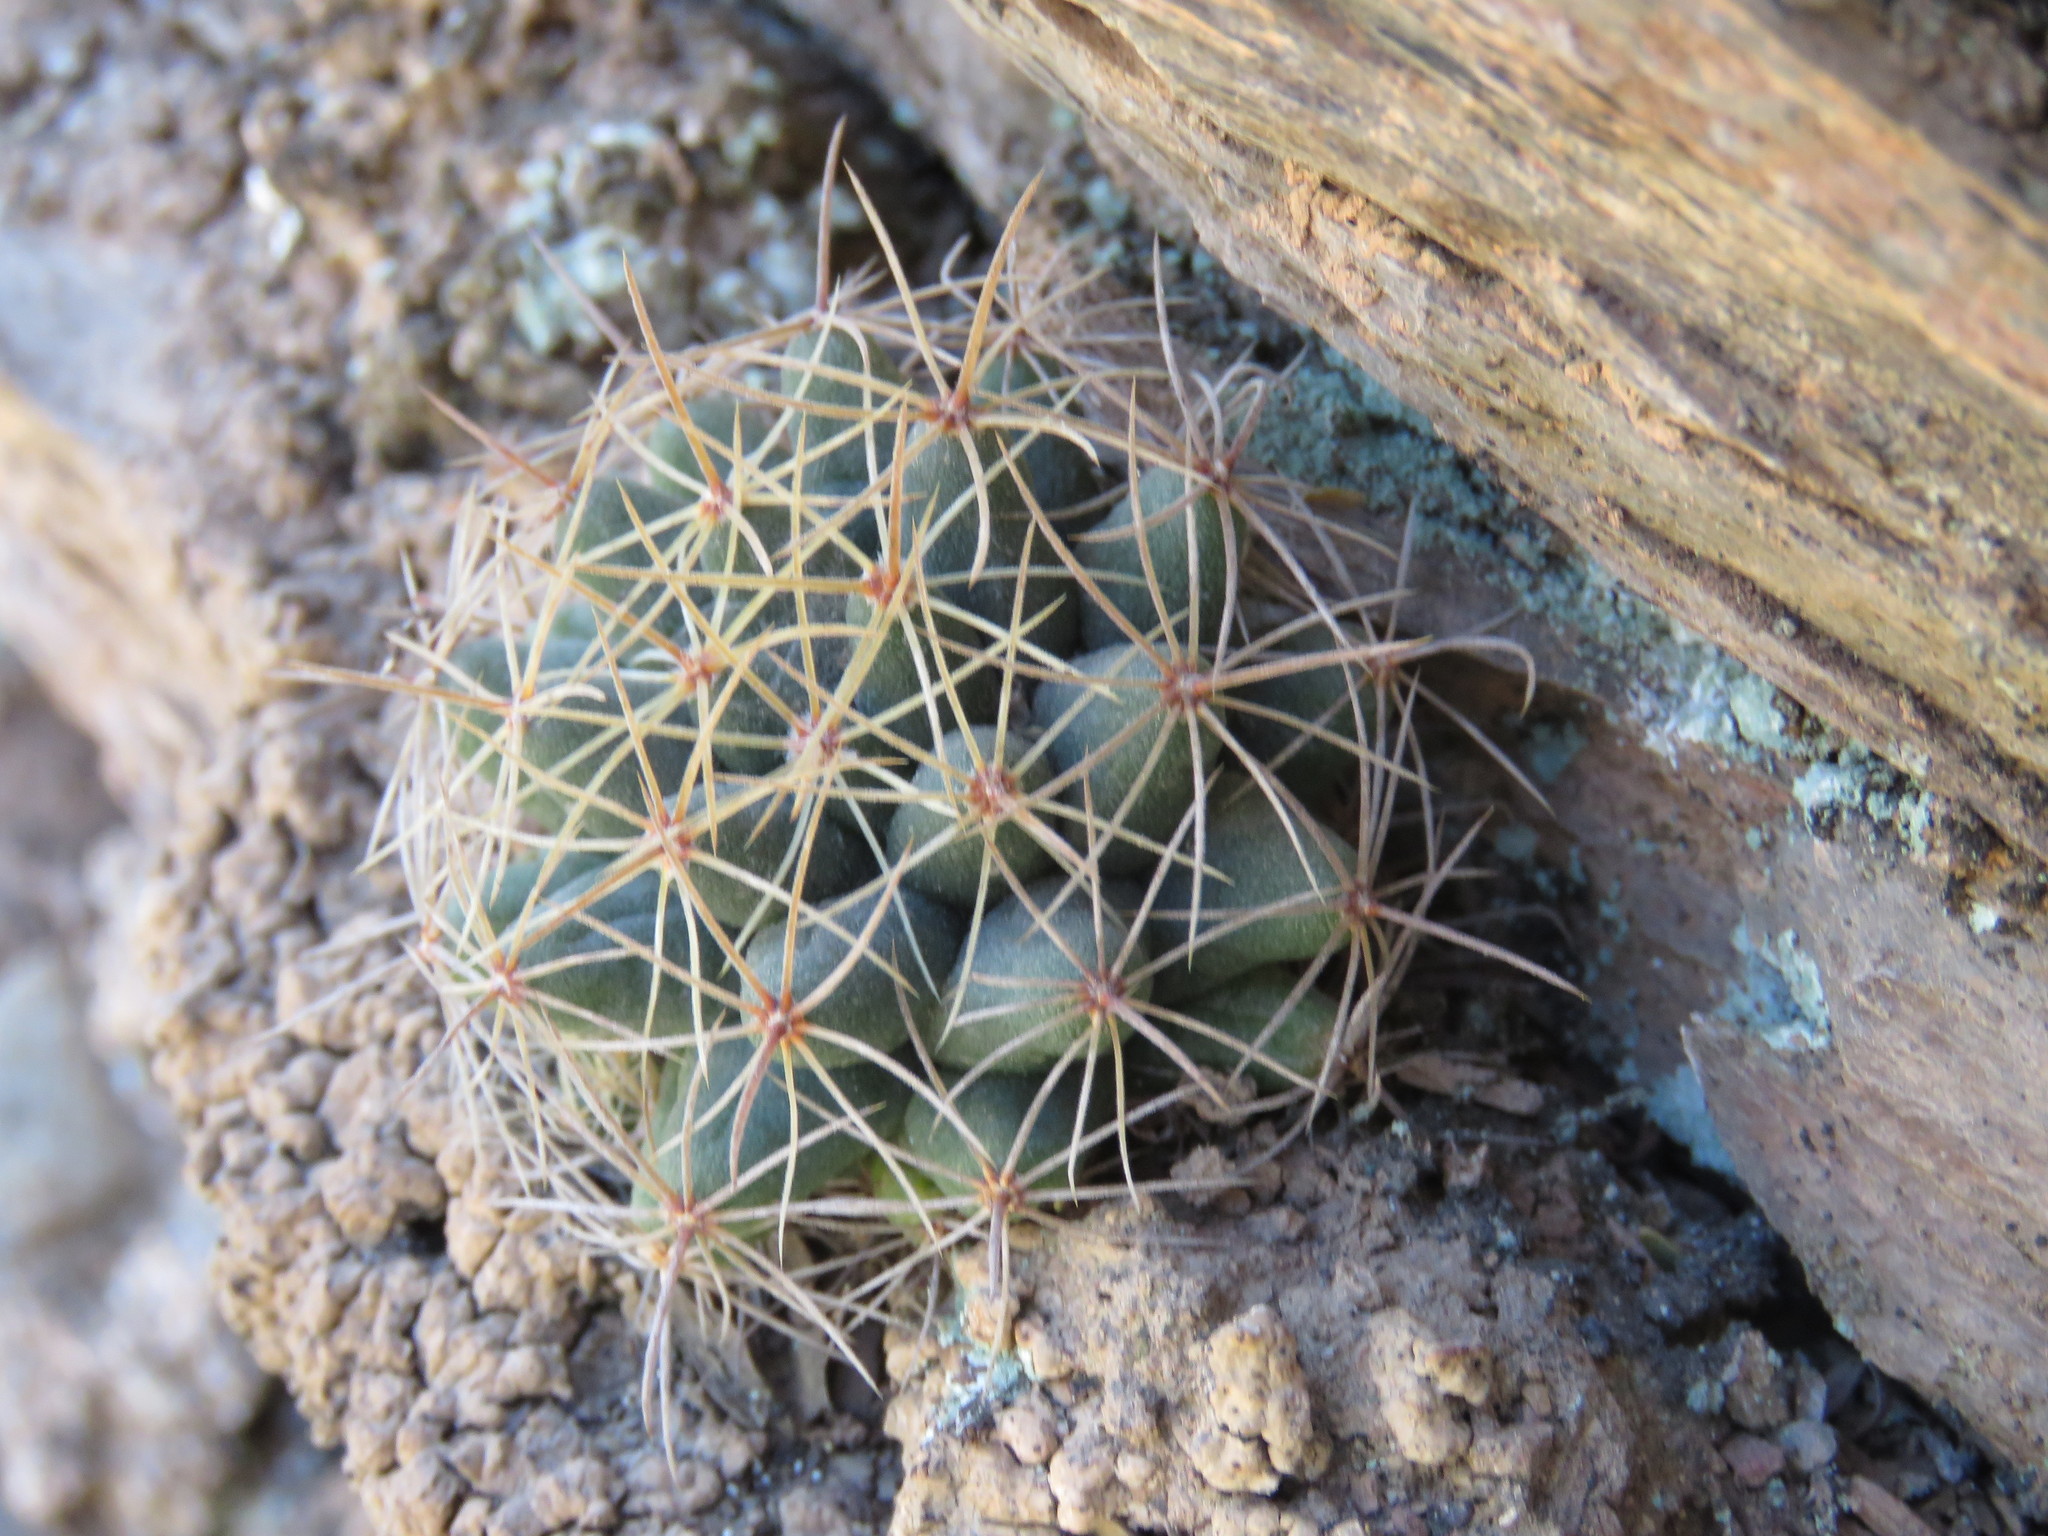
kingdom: Plantae
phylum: Tracheophyta
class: Magnoliopsida
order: Caryophyllales
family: Cactaceae
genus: Mammillaria
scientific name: Mammillaria longimamma
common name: Pineapple cactus
